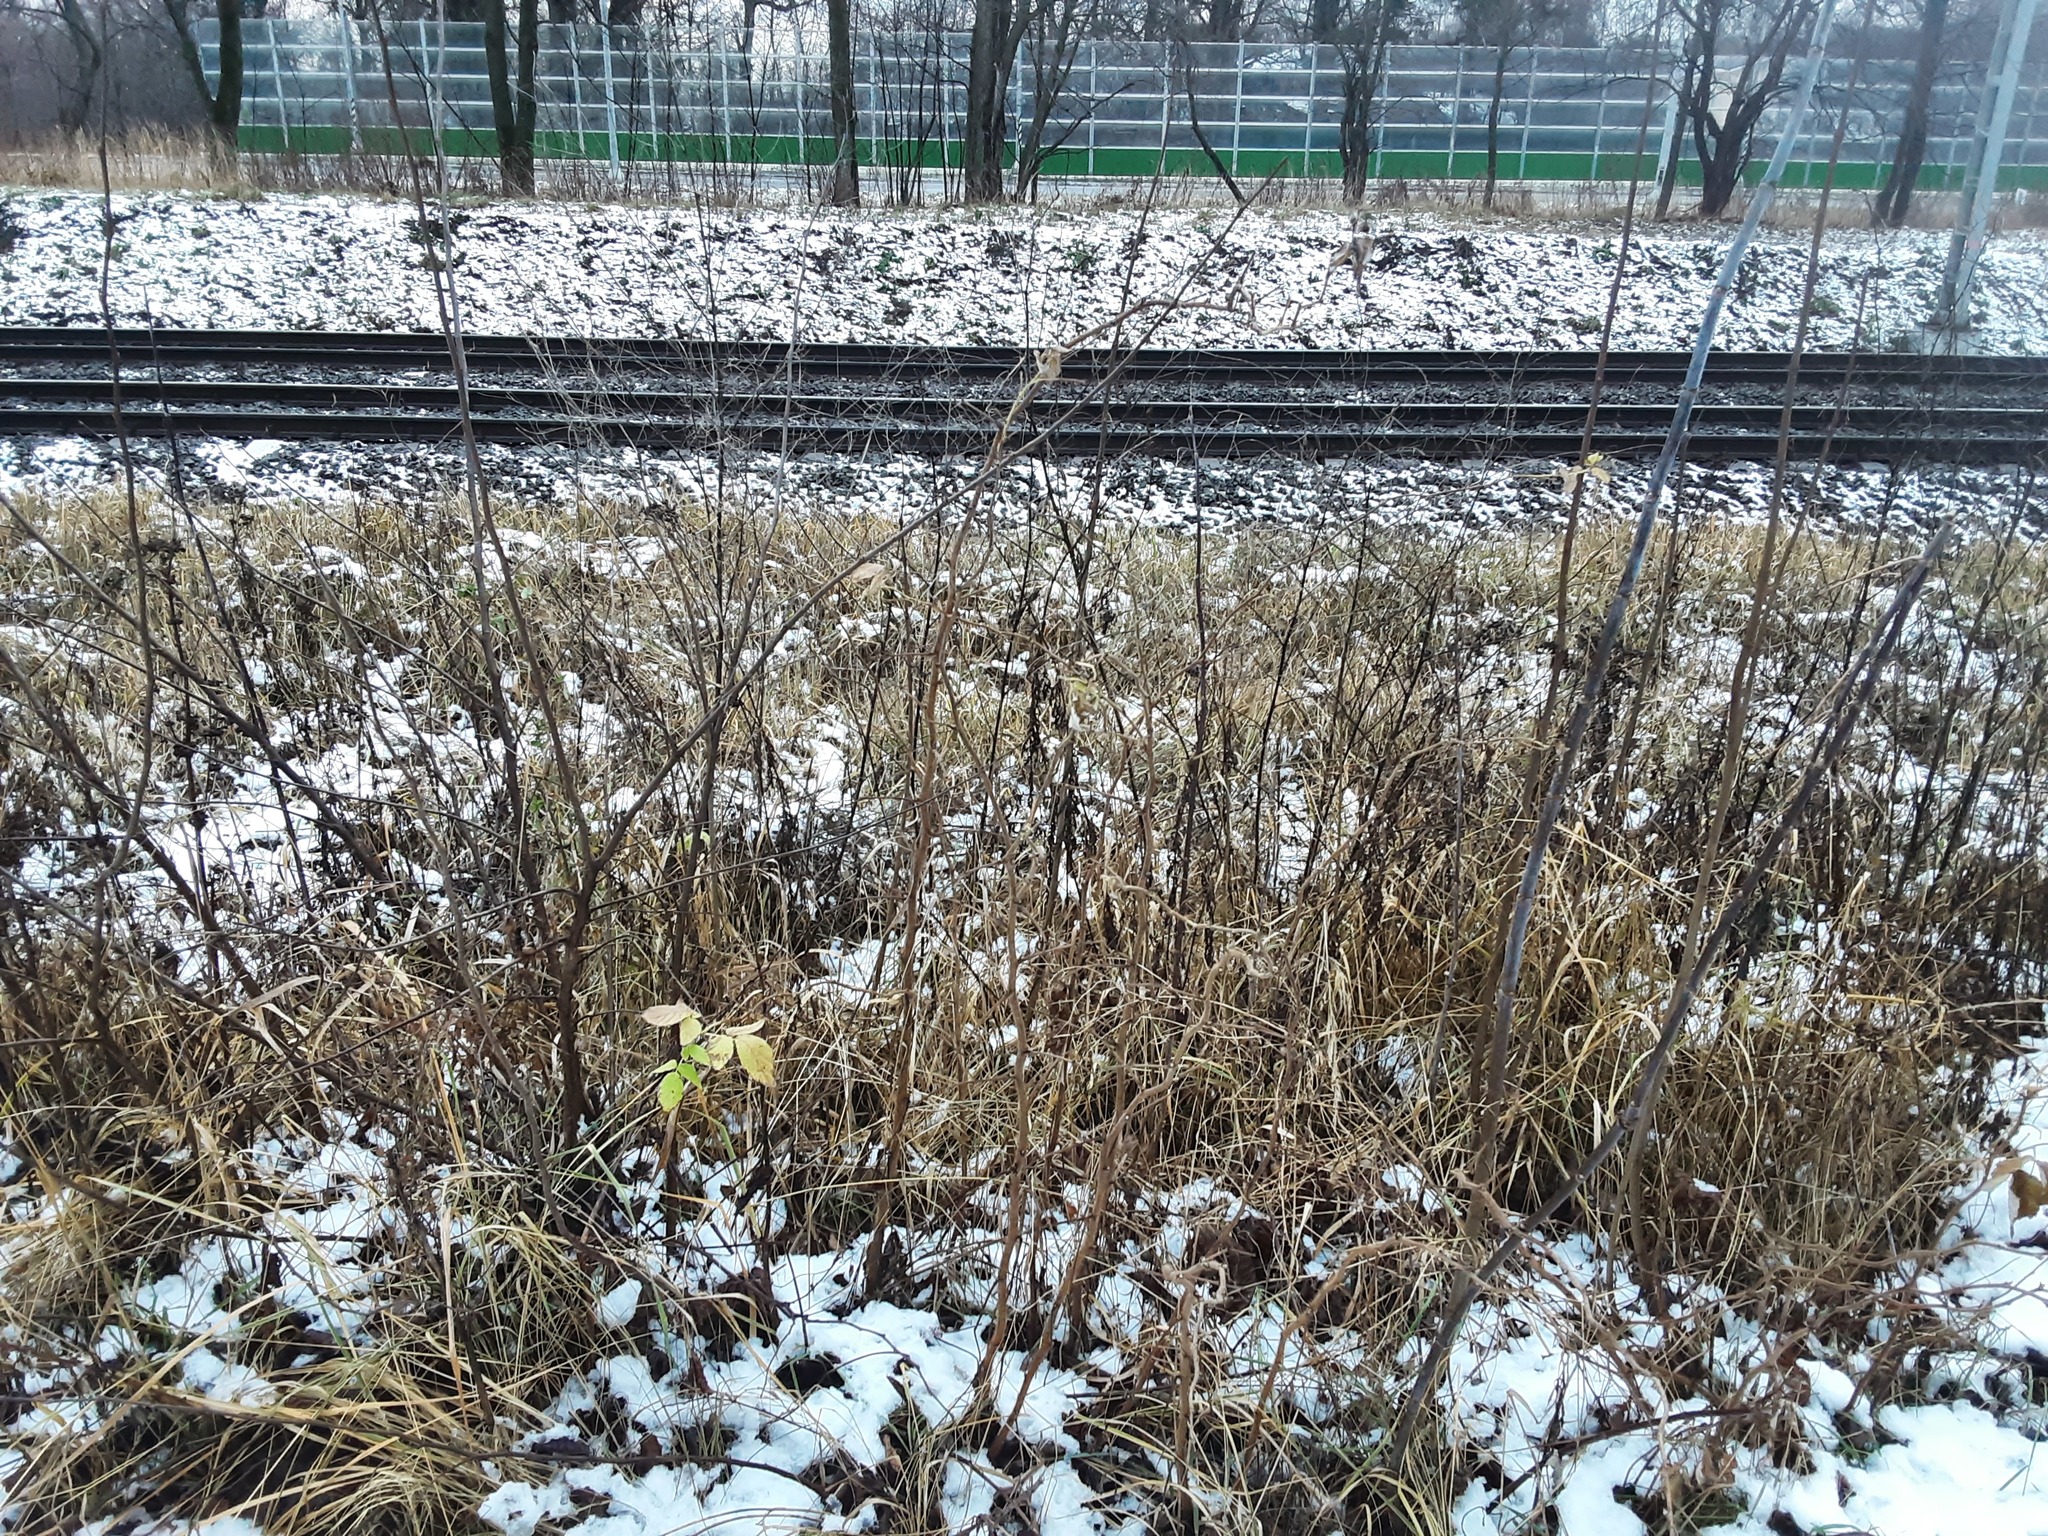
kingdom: Plantae
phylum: Tracheophyta
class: Magnoliopsida
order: Rosales
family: Rosaceae
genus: Rubus
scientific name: Rubus idaeus
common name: Raspberry
